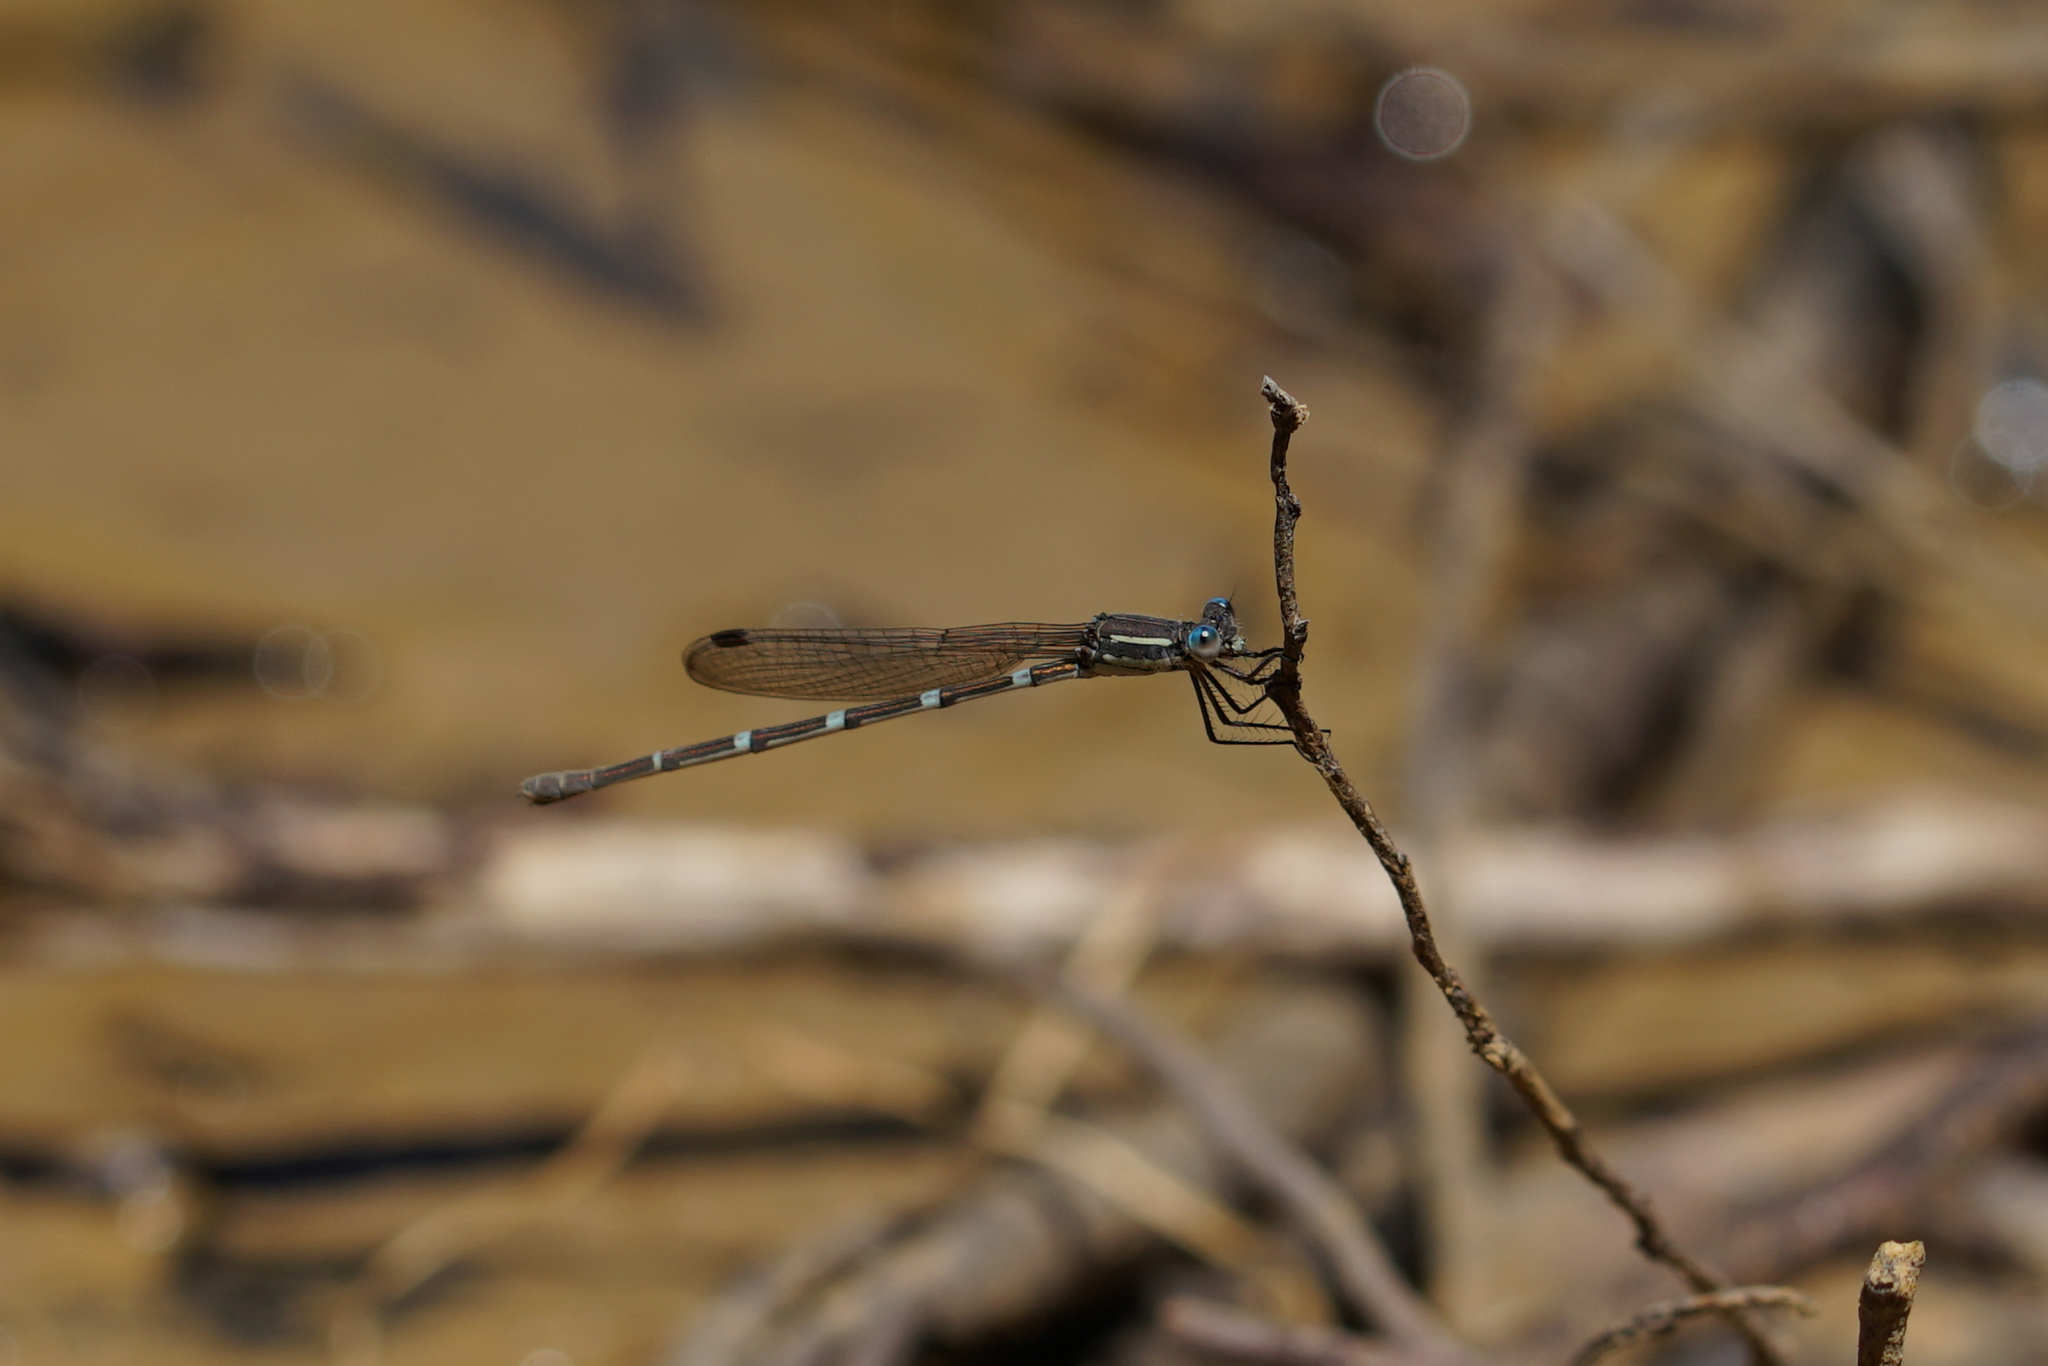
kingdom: Animalia
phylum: Arthropoda
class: Insecta
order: Odonata
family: Lestidae
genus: Austrolestes
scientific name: Austrolestes leda
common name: Wandering ringtail
